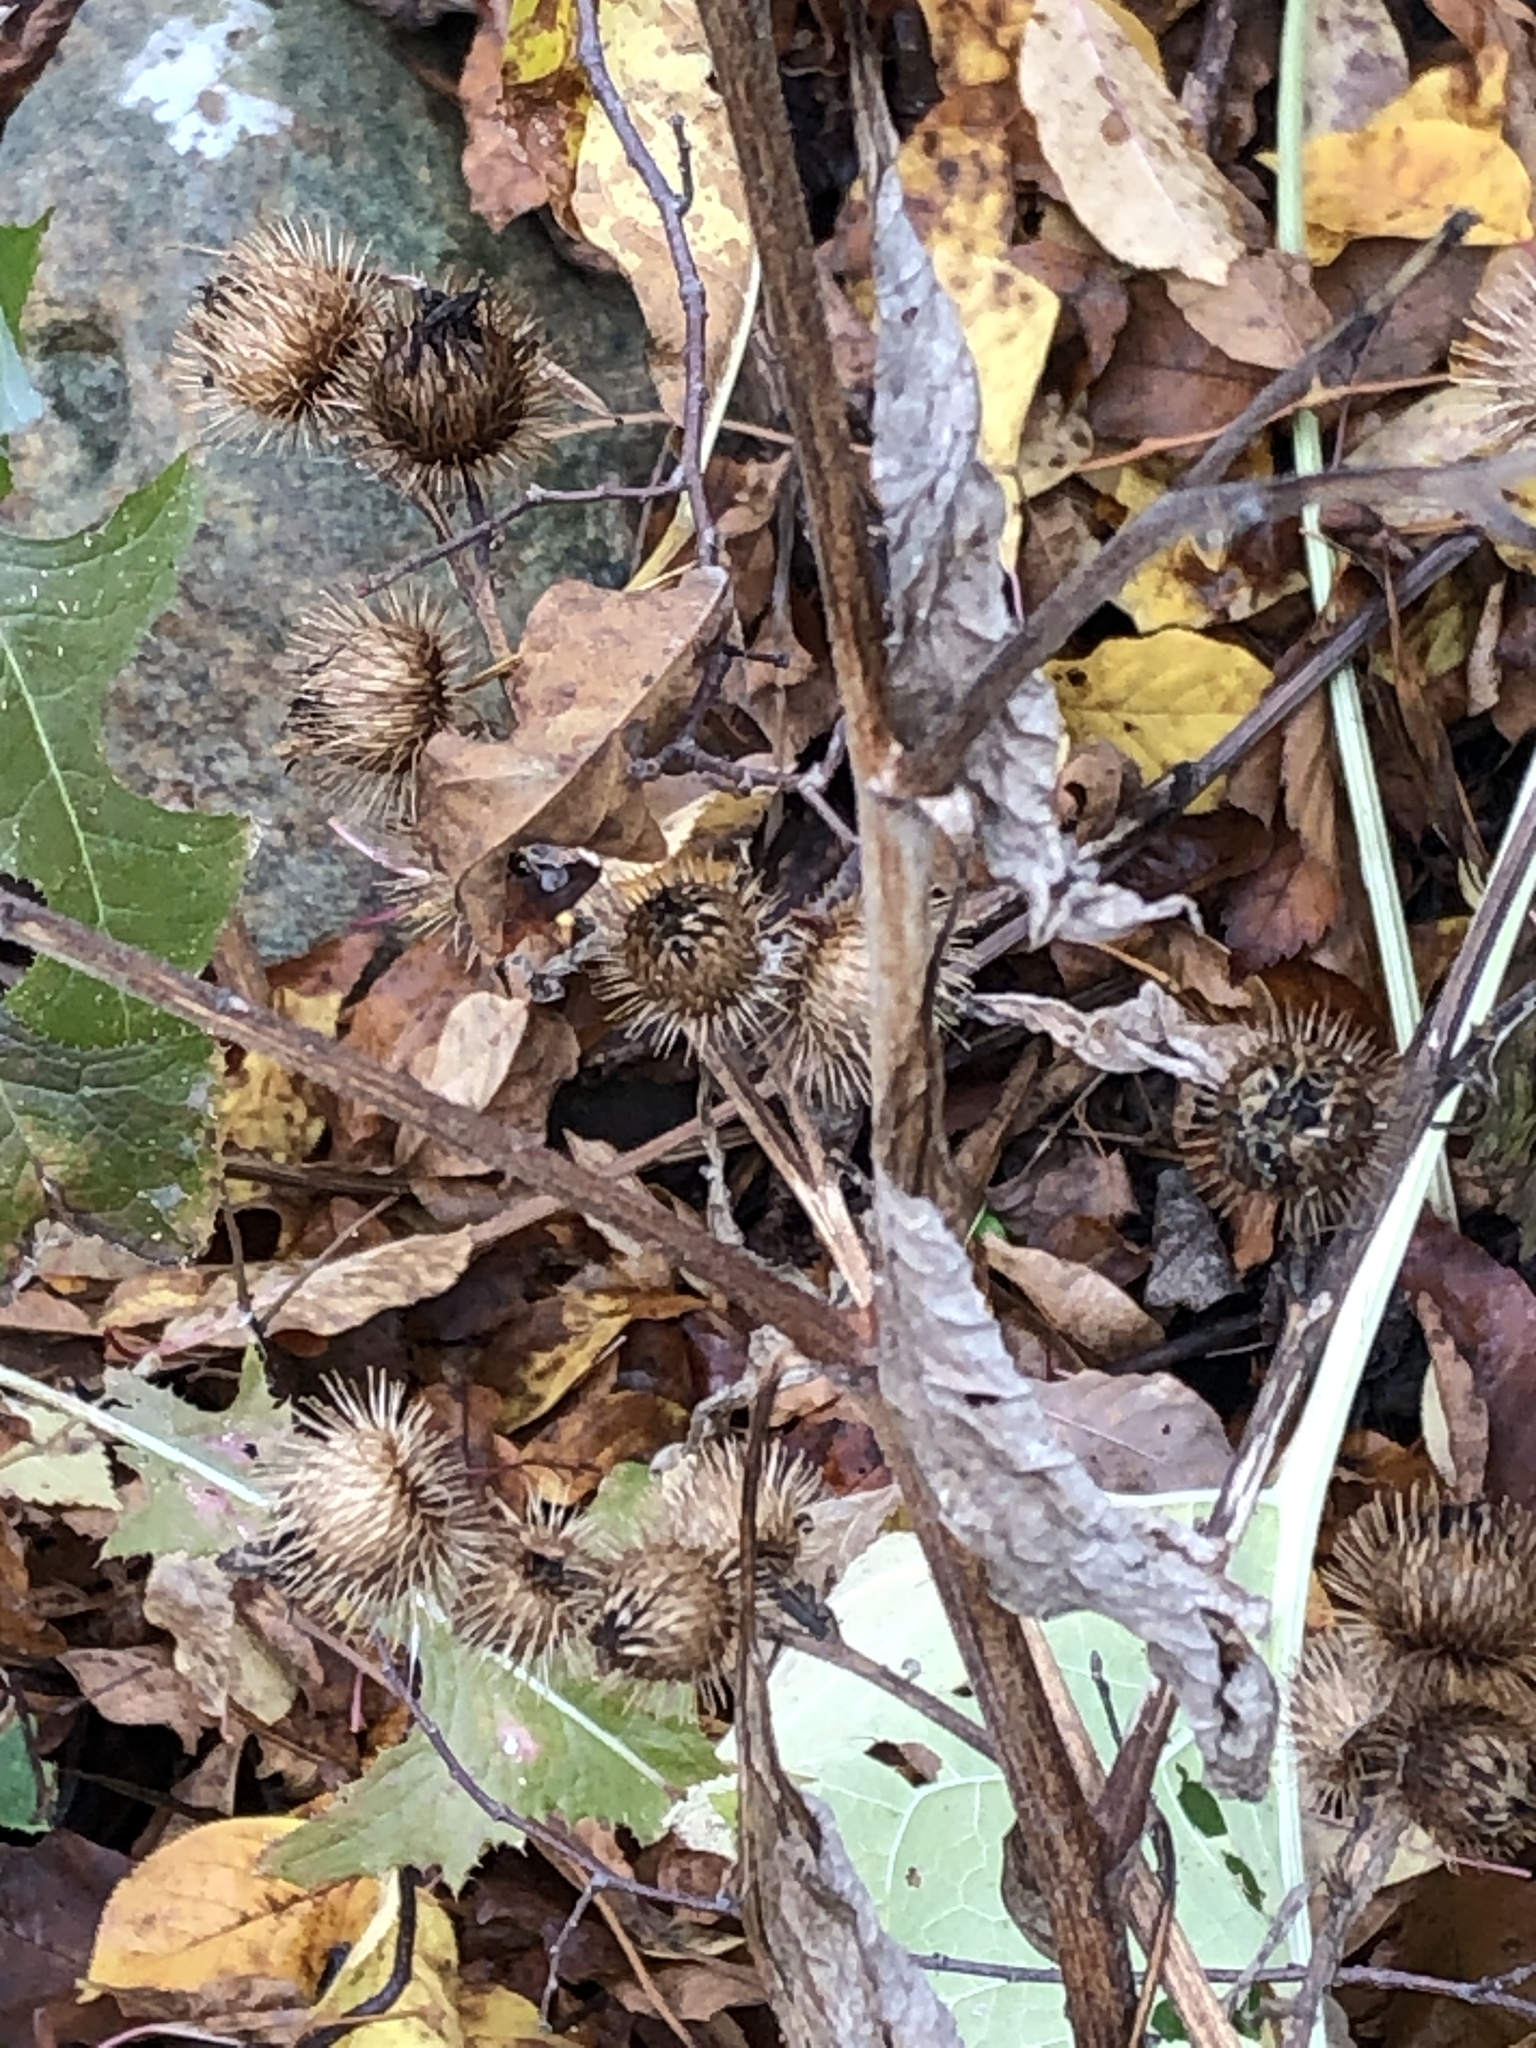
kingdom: Plantae
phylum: Tracheophyta
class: Magnoliopsida
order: Asterales
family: Asteraceae
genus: Arctium
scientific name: Arctium minus
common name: Lesser burdock
